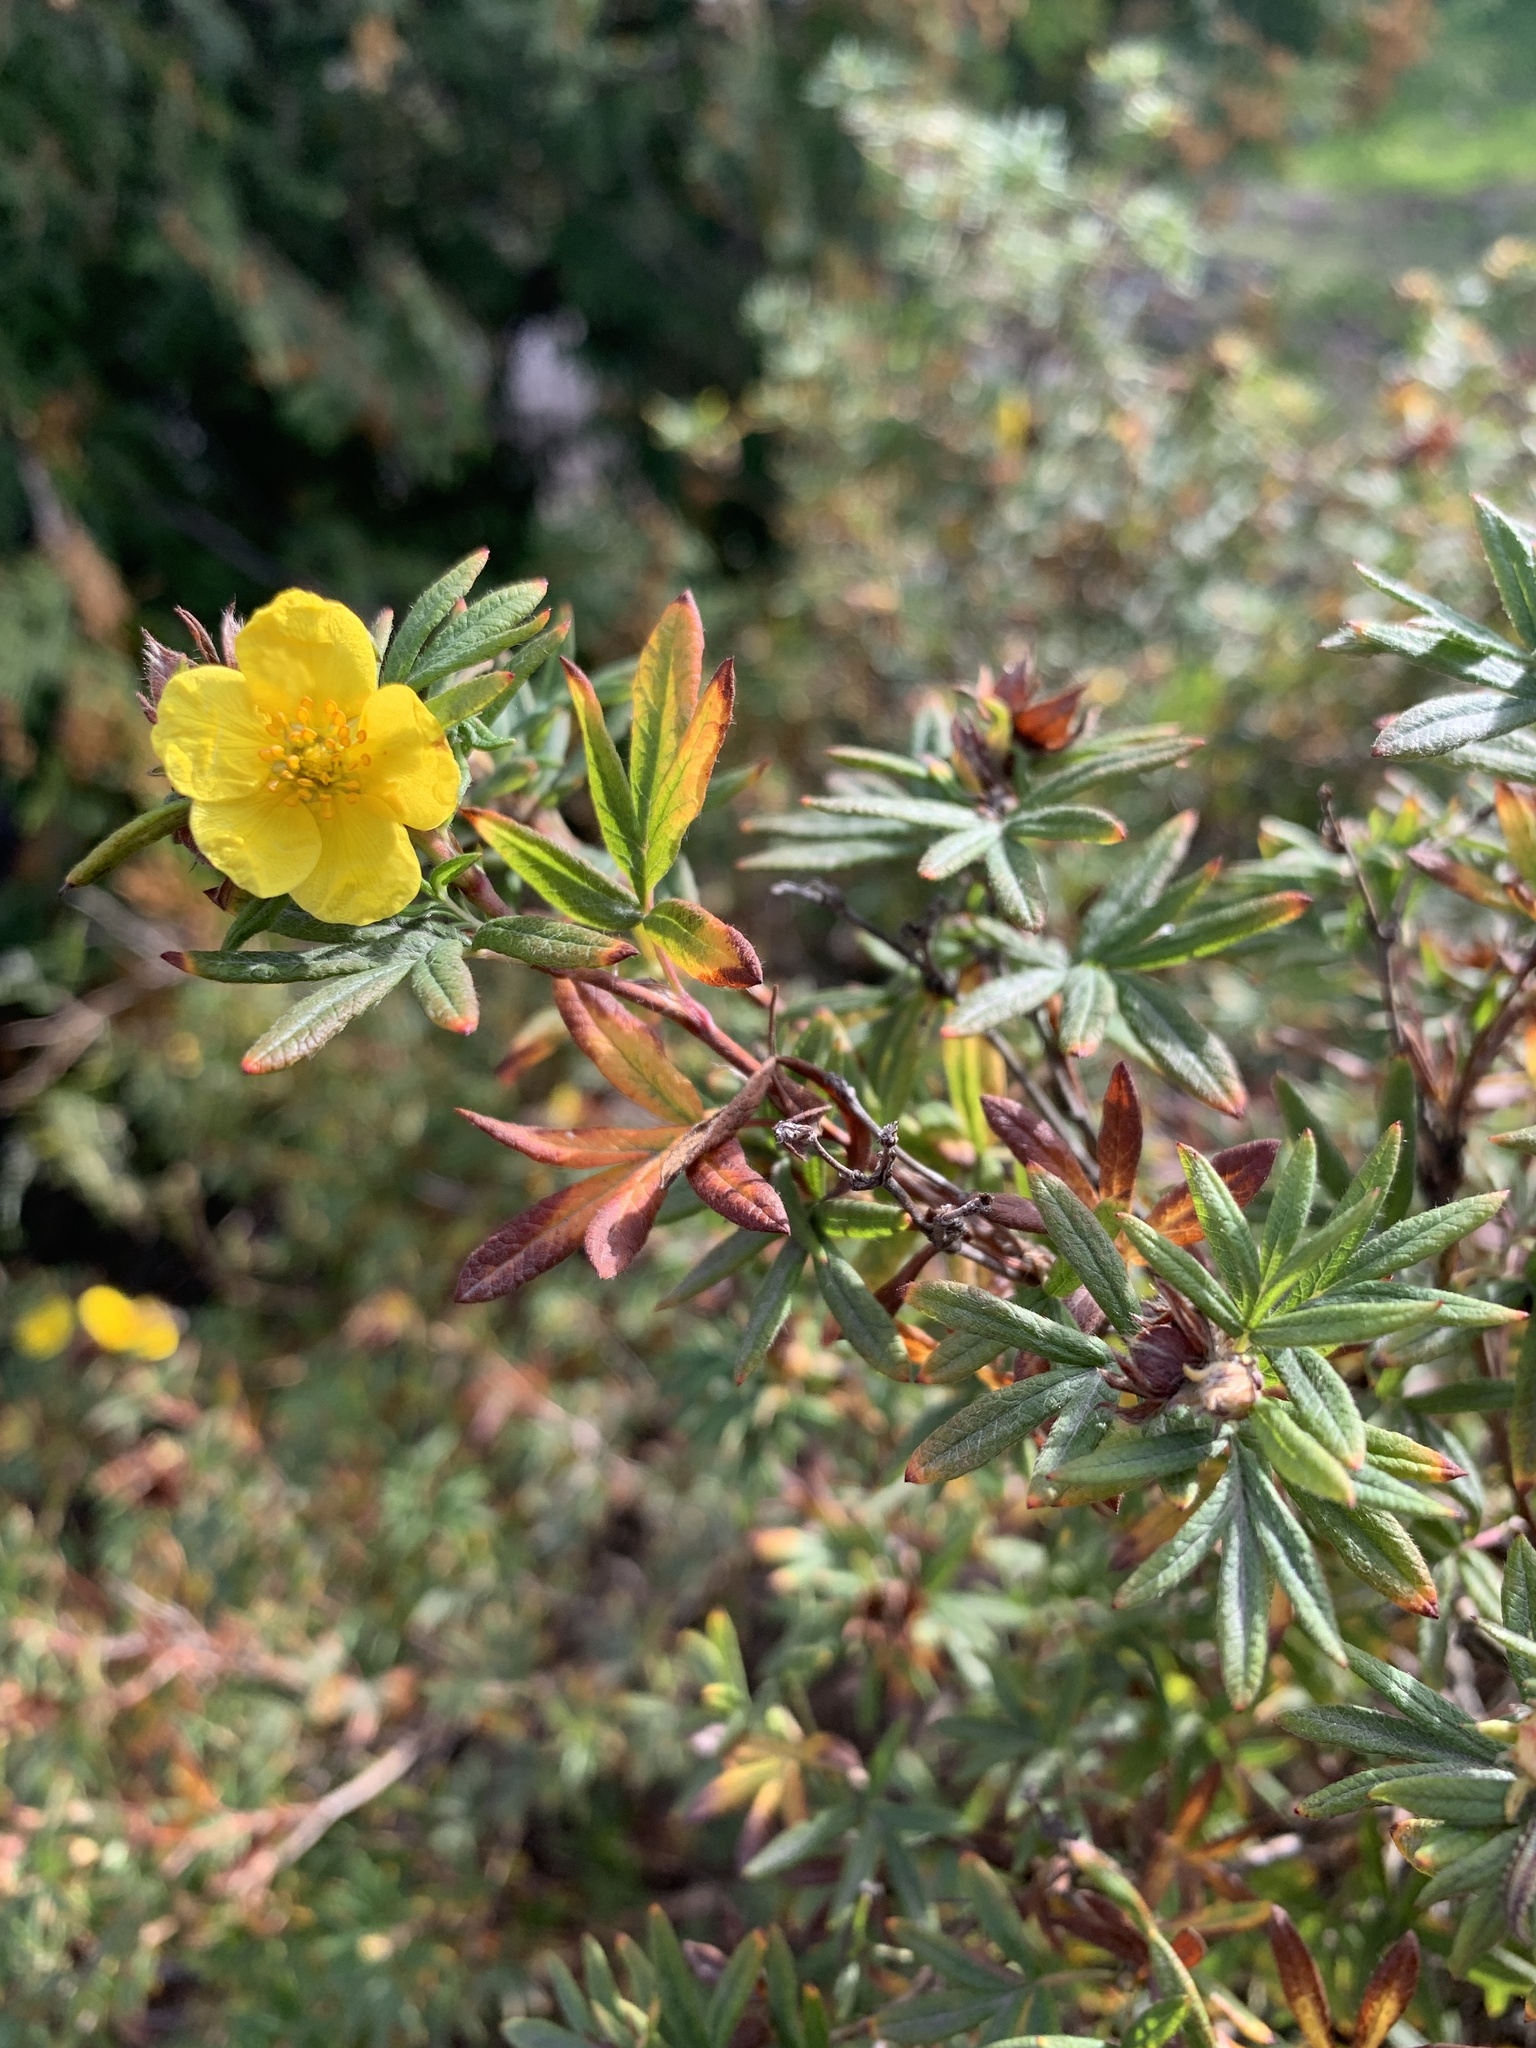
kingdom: Plantae
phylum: Tracheophyta
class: Magnoliopsida
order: Rosales
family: Rosaceae
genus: Dasiphora
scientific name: Dasiphora fruticosa
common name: Shrubby cinquefoil
